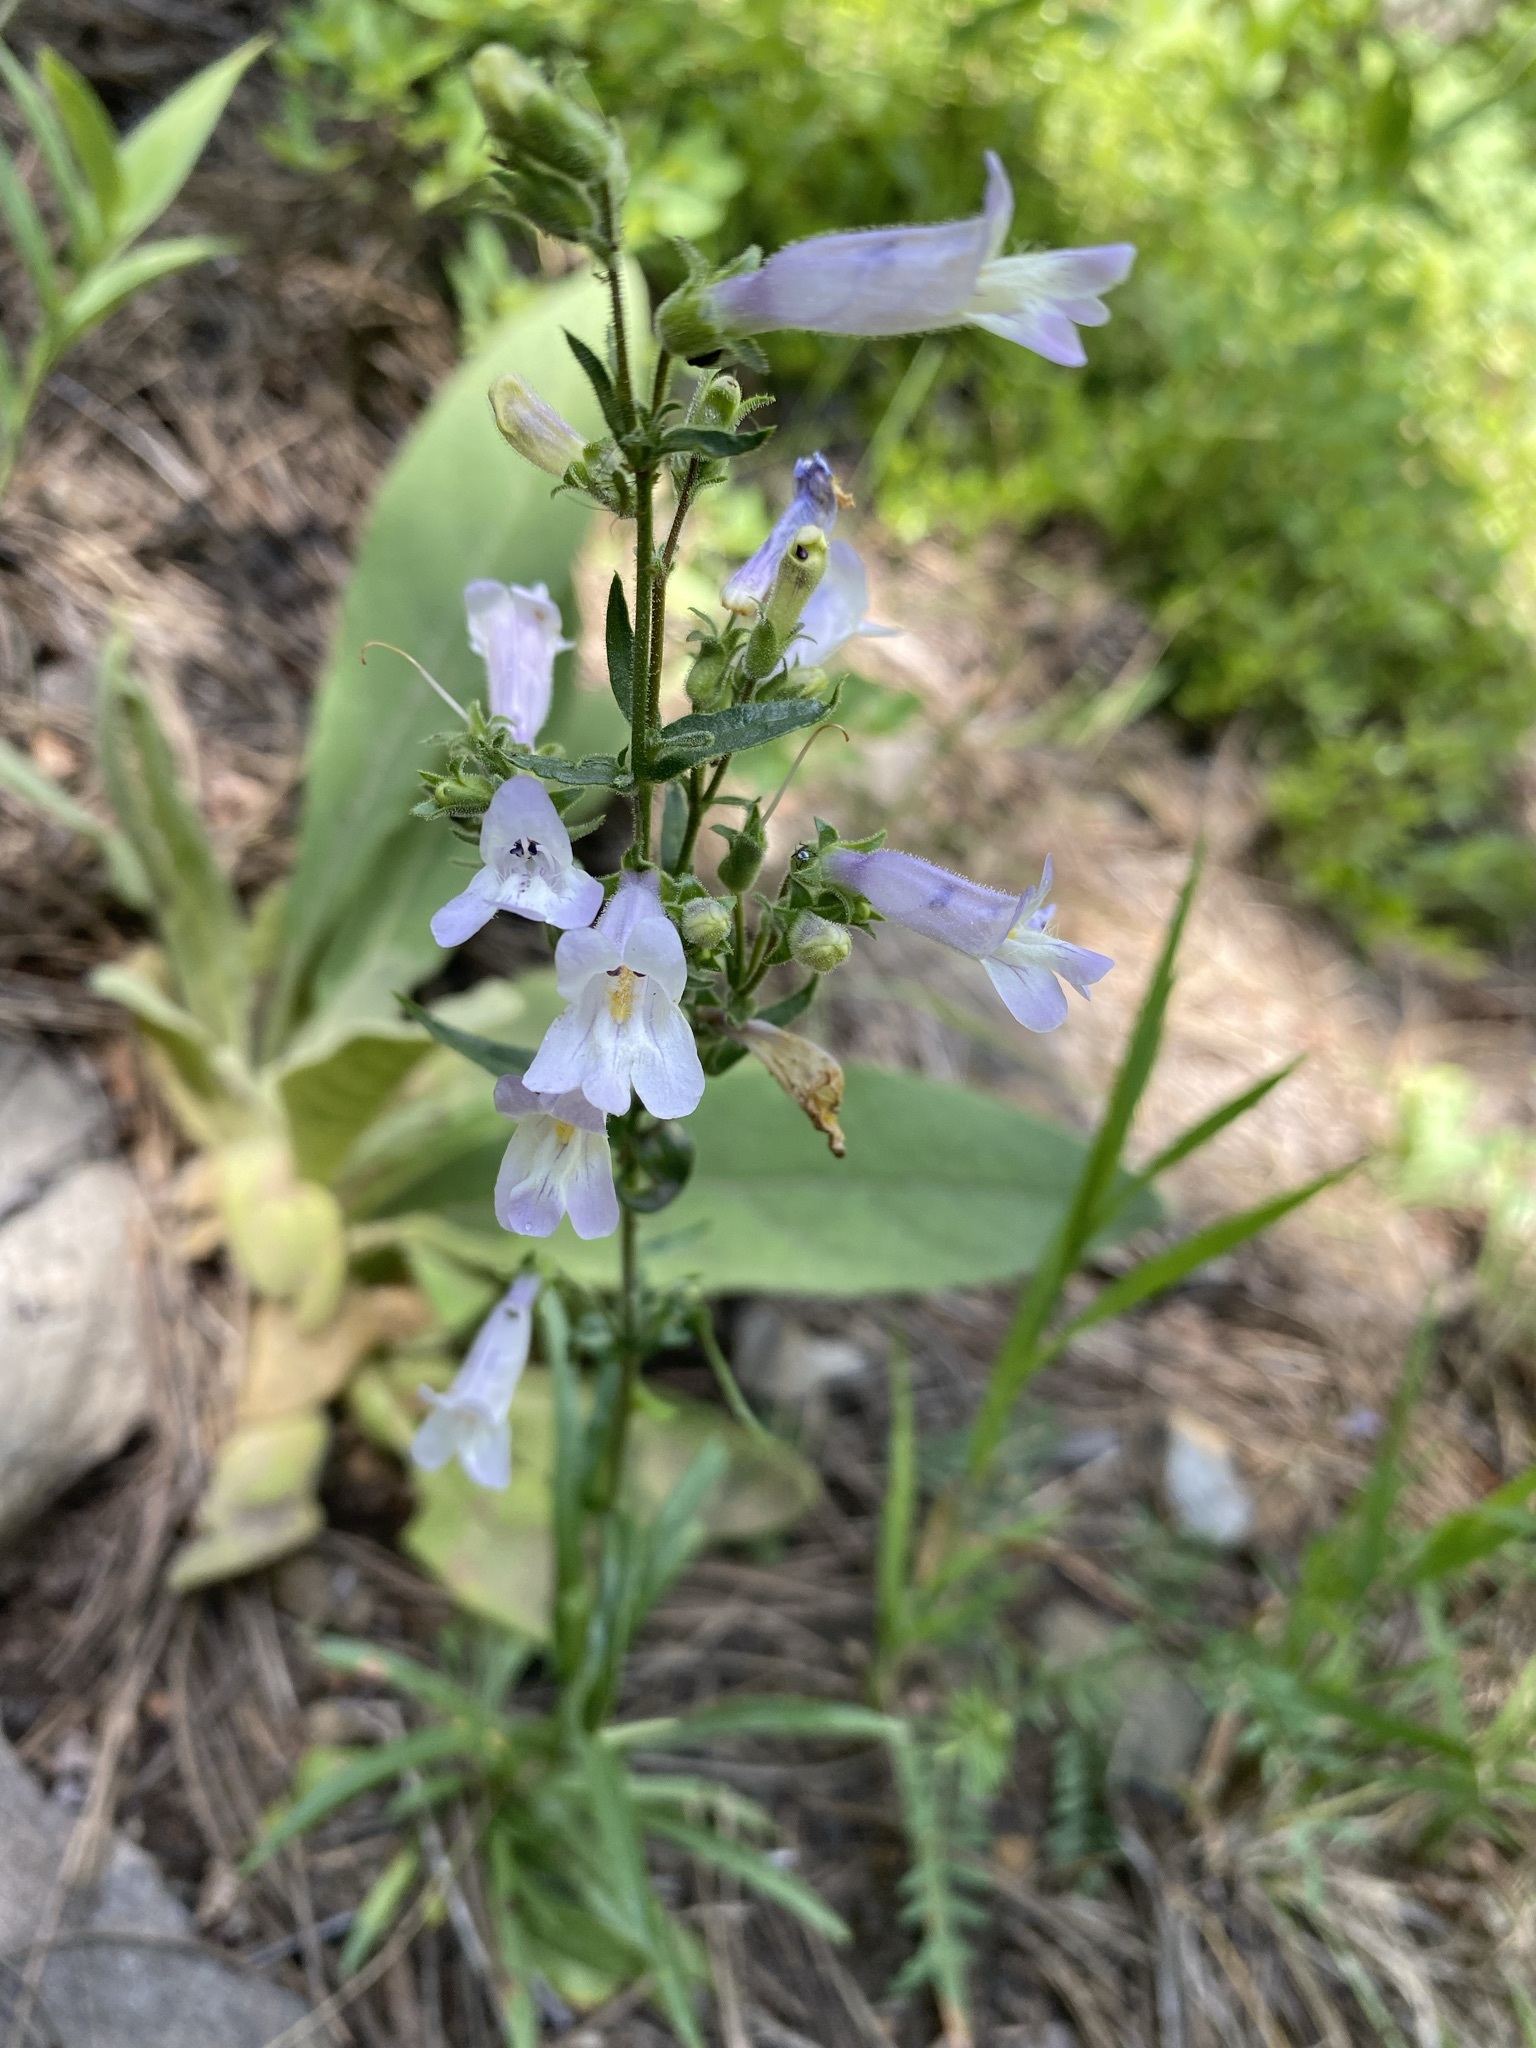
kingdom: Plantae
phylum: Tracheophyta
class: Magnoliopsida
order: Lamiales
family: Plantaginaceae
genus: Penstemon
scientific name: Penstemon gracilis
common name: Slender beardtongue
